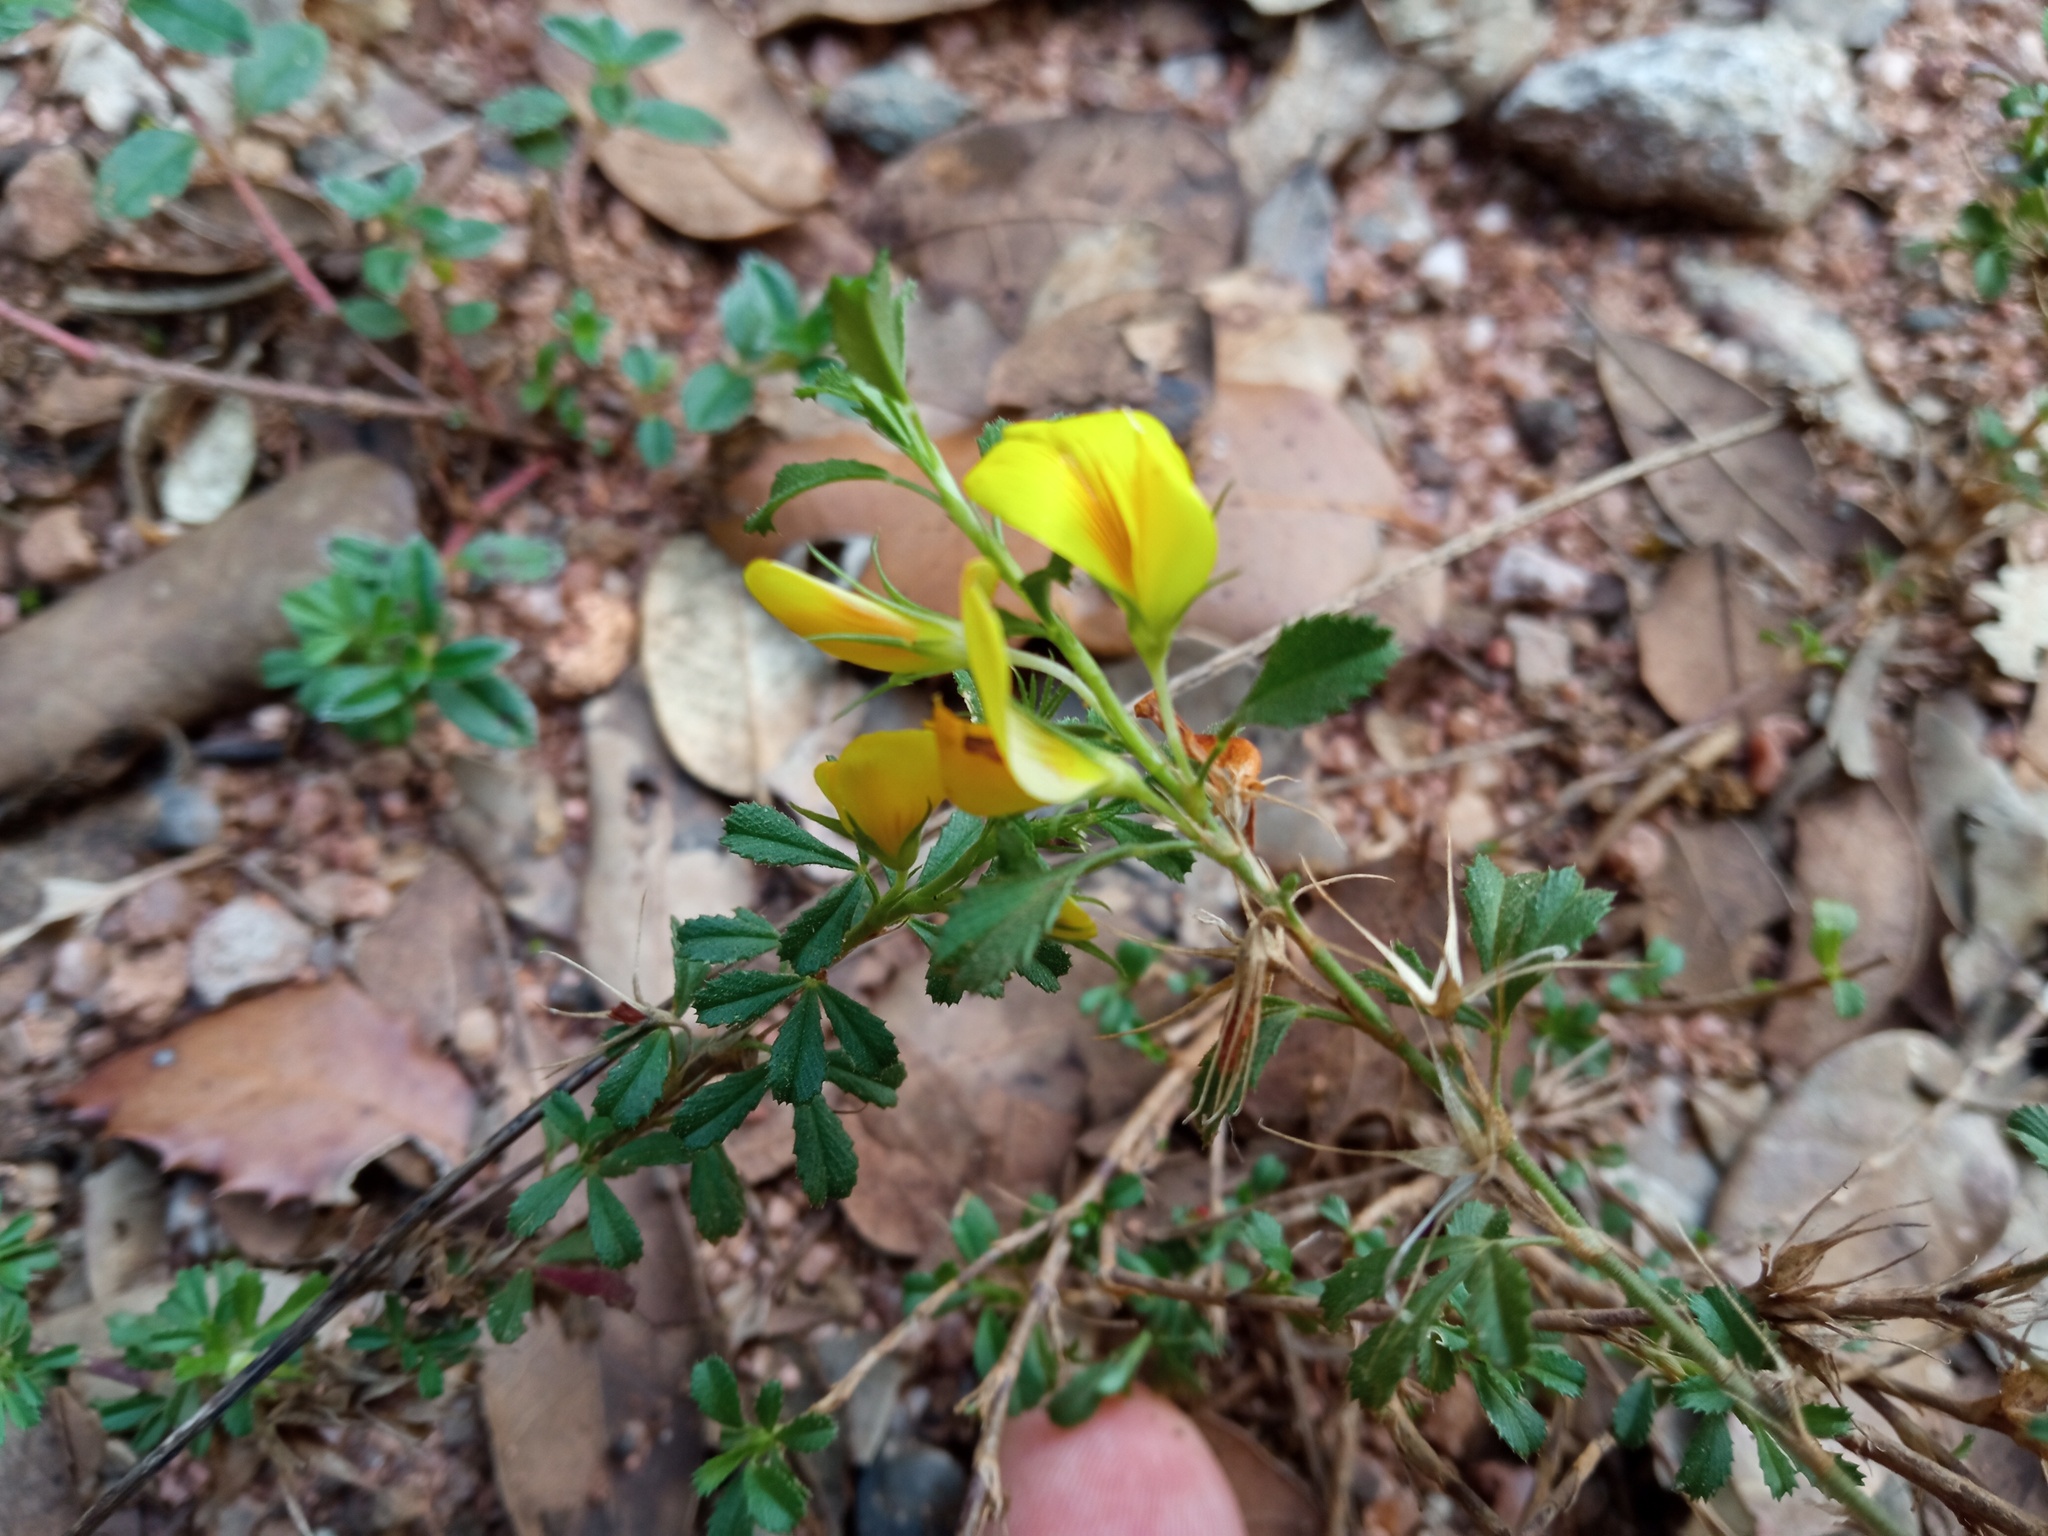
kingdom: Plantae
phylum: Tracheophyta
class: Magnoliopsida
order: Fabales
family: Fabaceae
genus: Ononis
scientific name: Ononis minutissima
